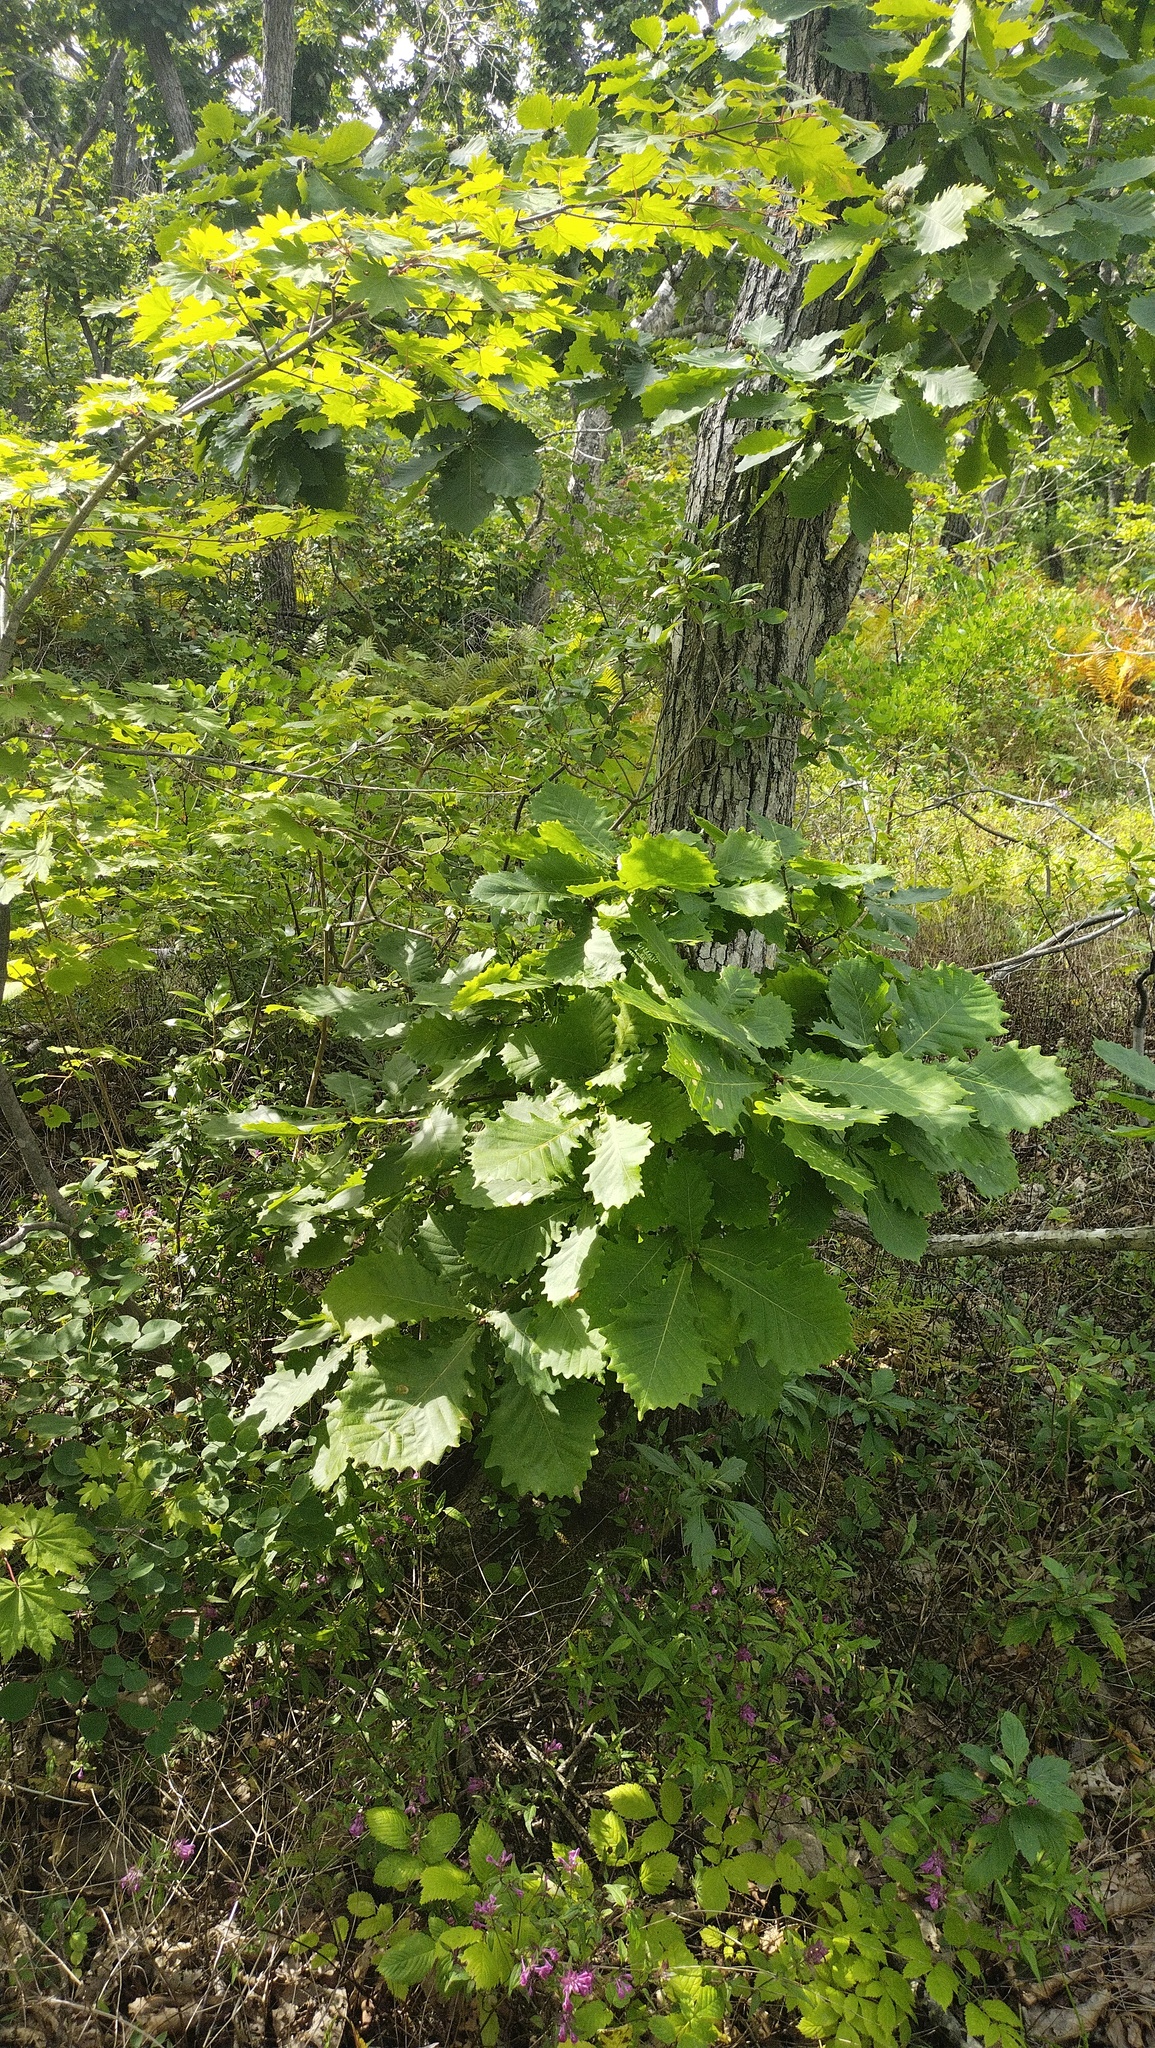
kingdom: Plantae
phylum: Tracheophyta
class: Magnoliopsida
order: Fagales
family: Fagaceae
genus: Quercus
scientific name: Quercus mongolica
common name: Mongolian oak
